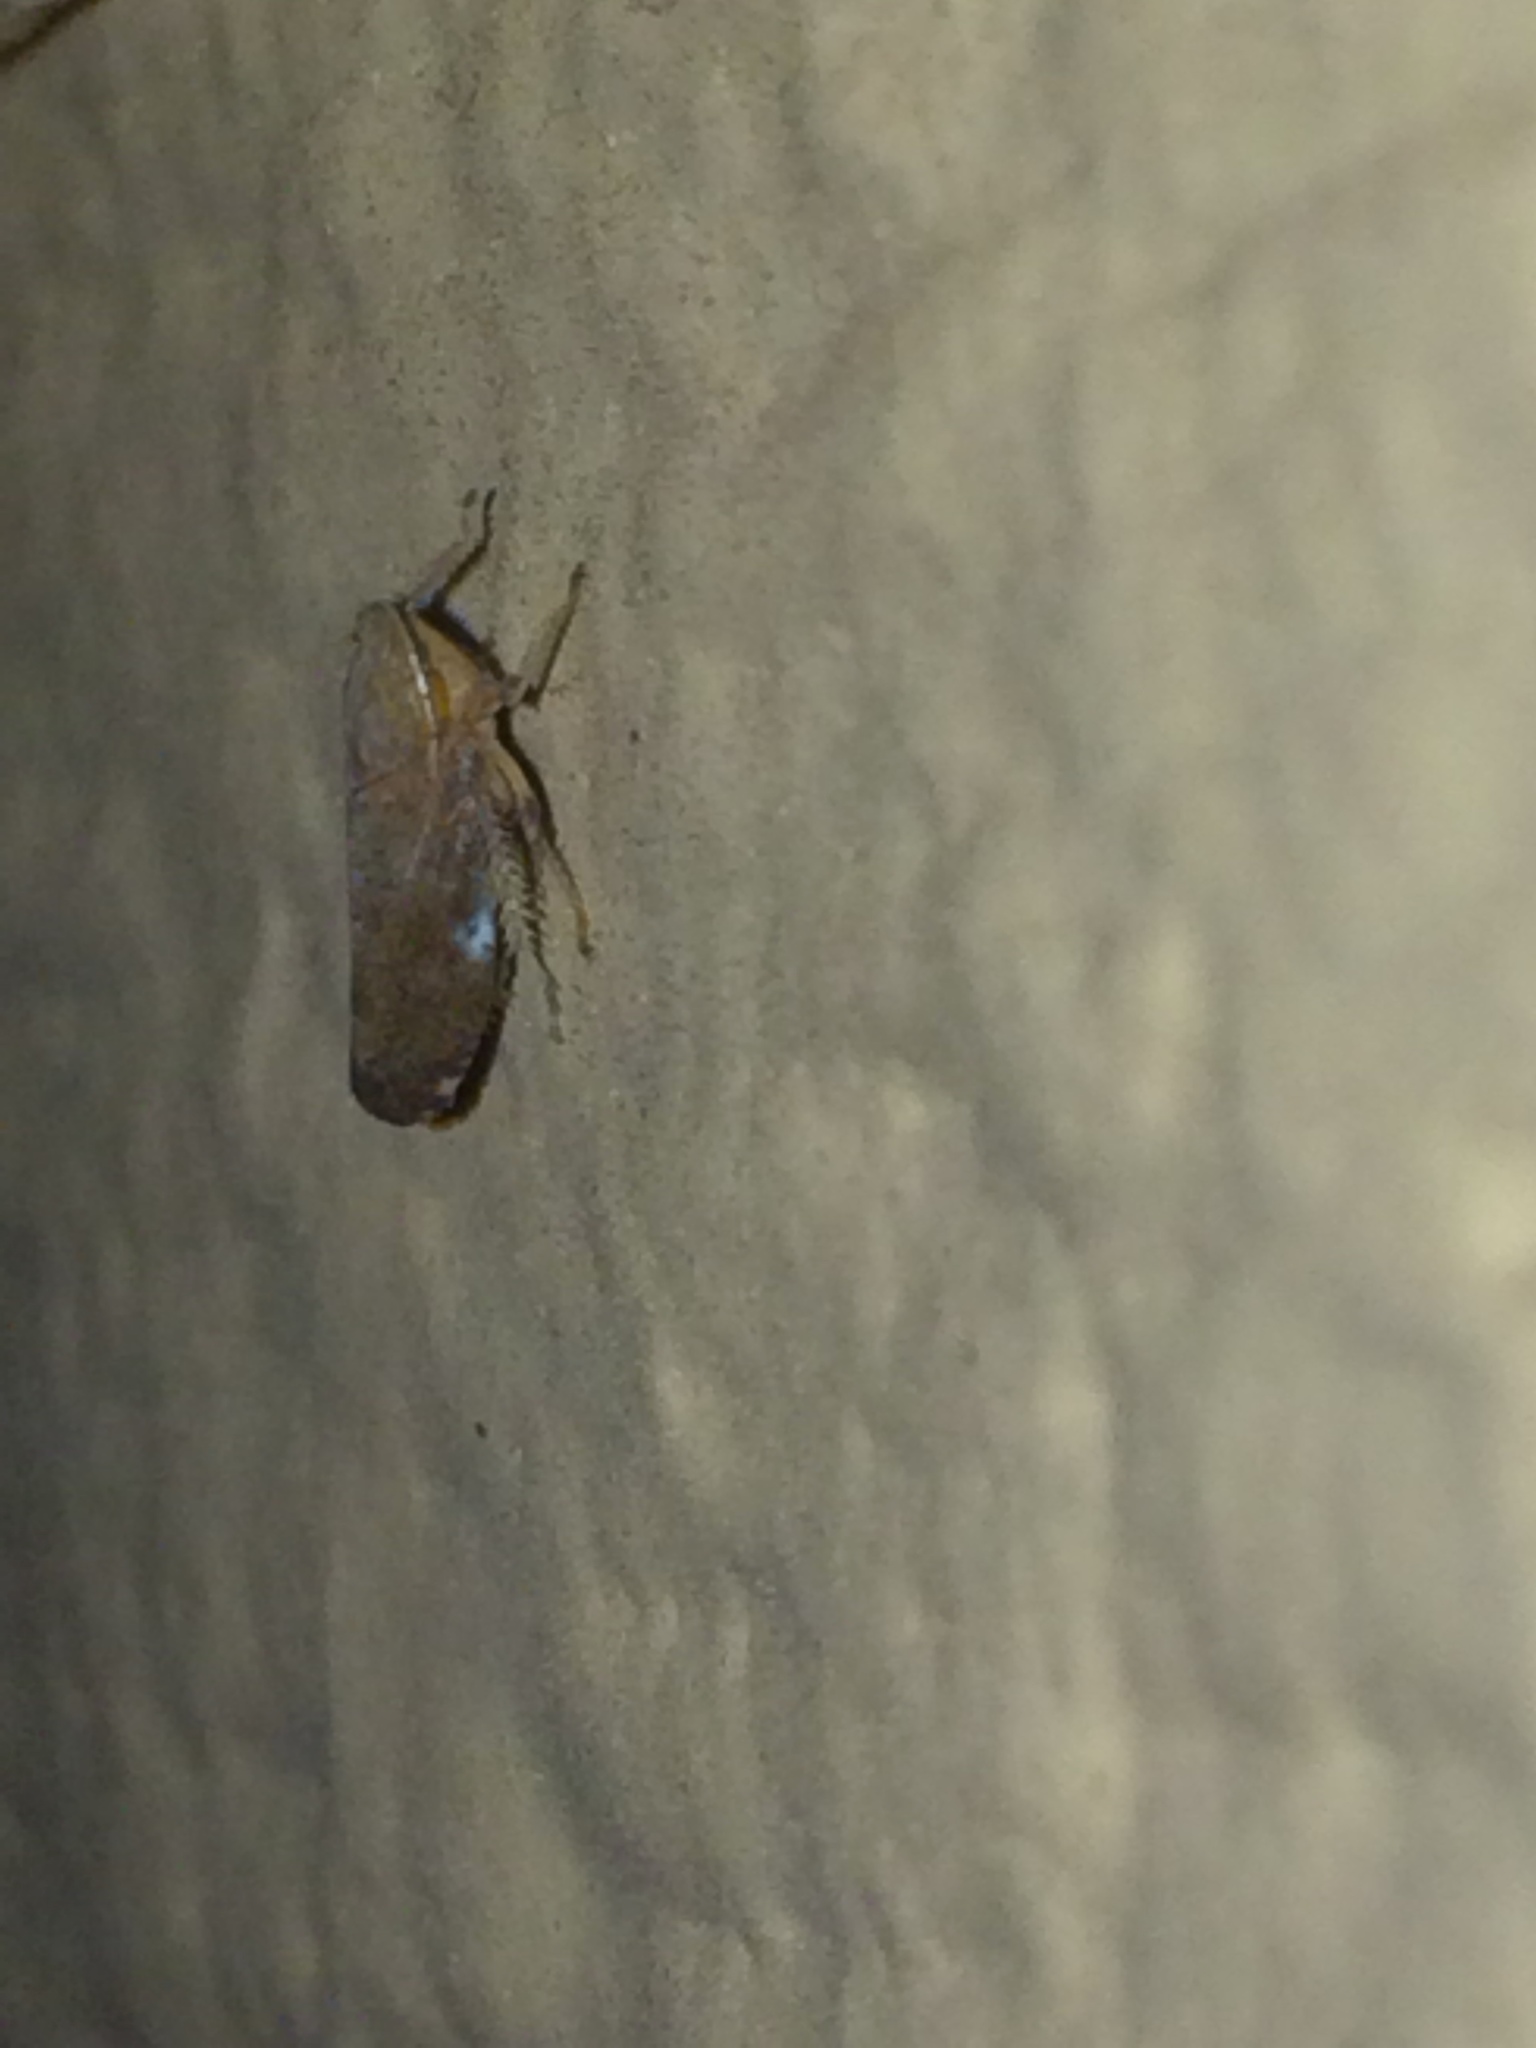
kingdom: Animalia
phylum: Arthropoda
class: Insecta
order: Hemiptera
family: Cicadellidae
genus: Fieberiella
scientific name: Fieberiella florii
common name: Flor’s leafhopper
